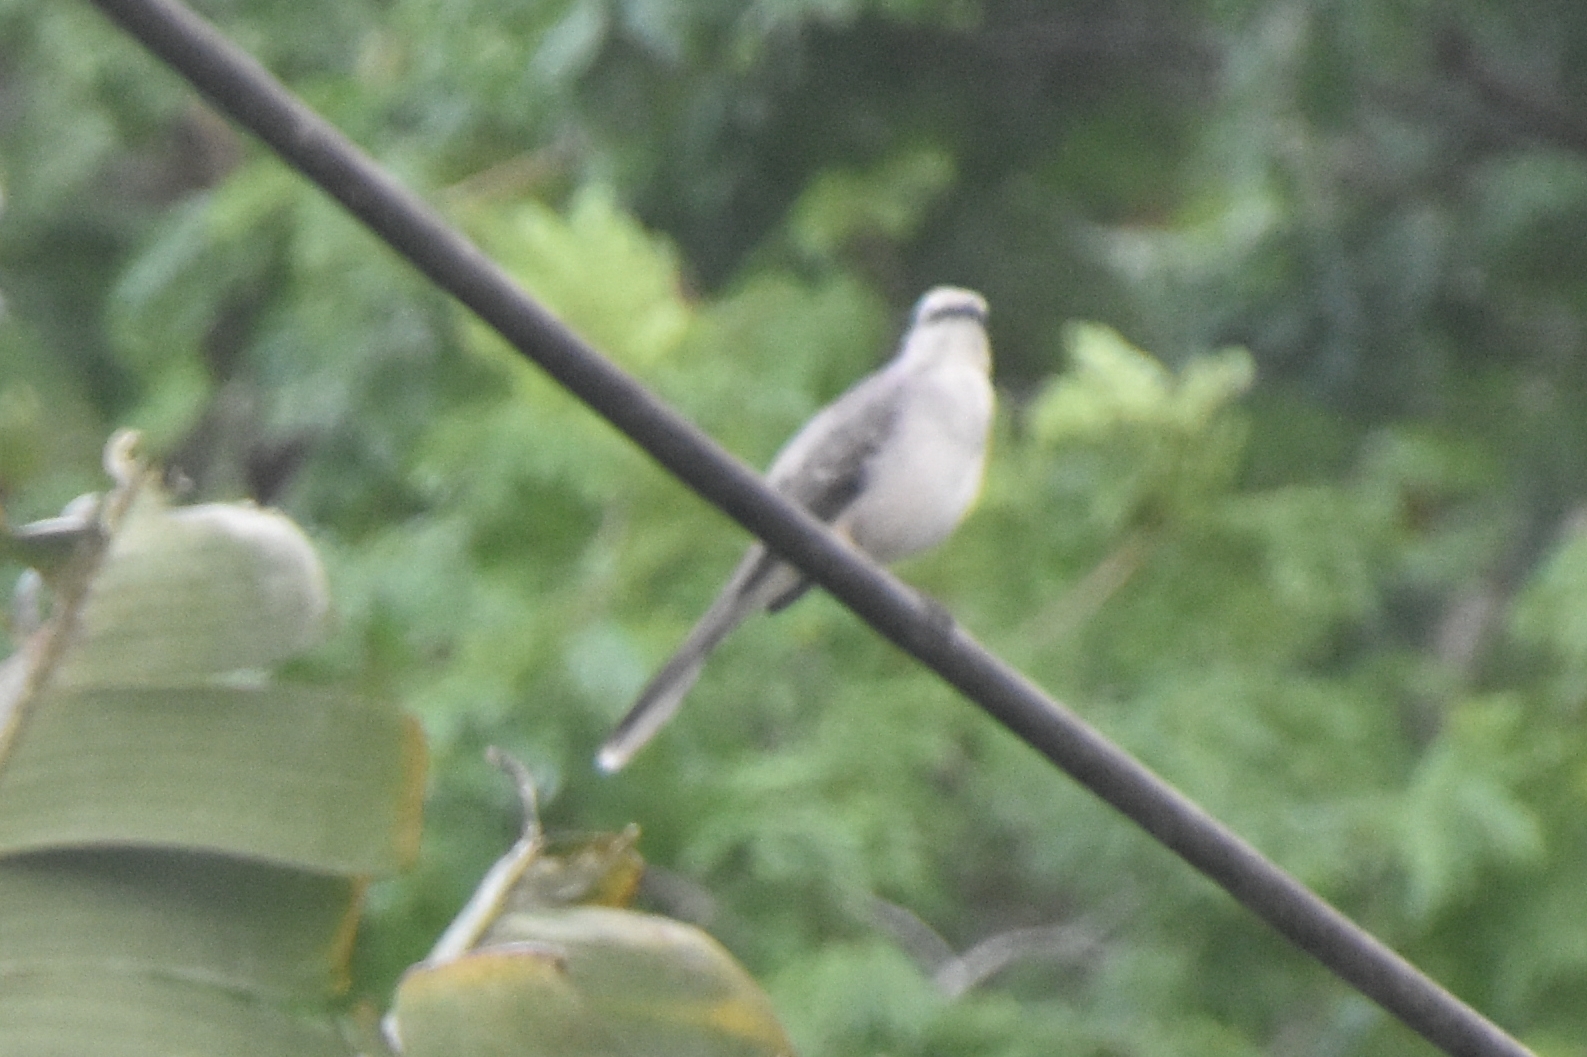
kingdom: Animalia
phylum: Chordata
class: Aves
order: Passeriformes
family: Mimidae
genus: Mimus
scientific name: Mimus gilvus
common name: Tropical mockingbird
